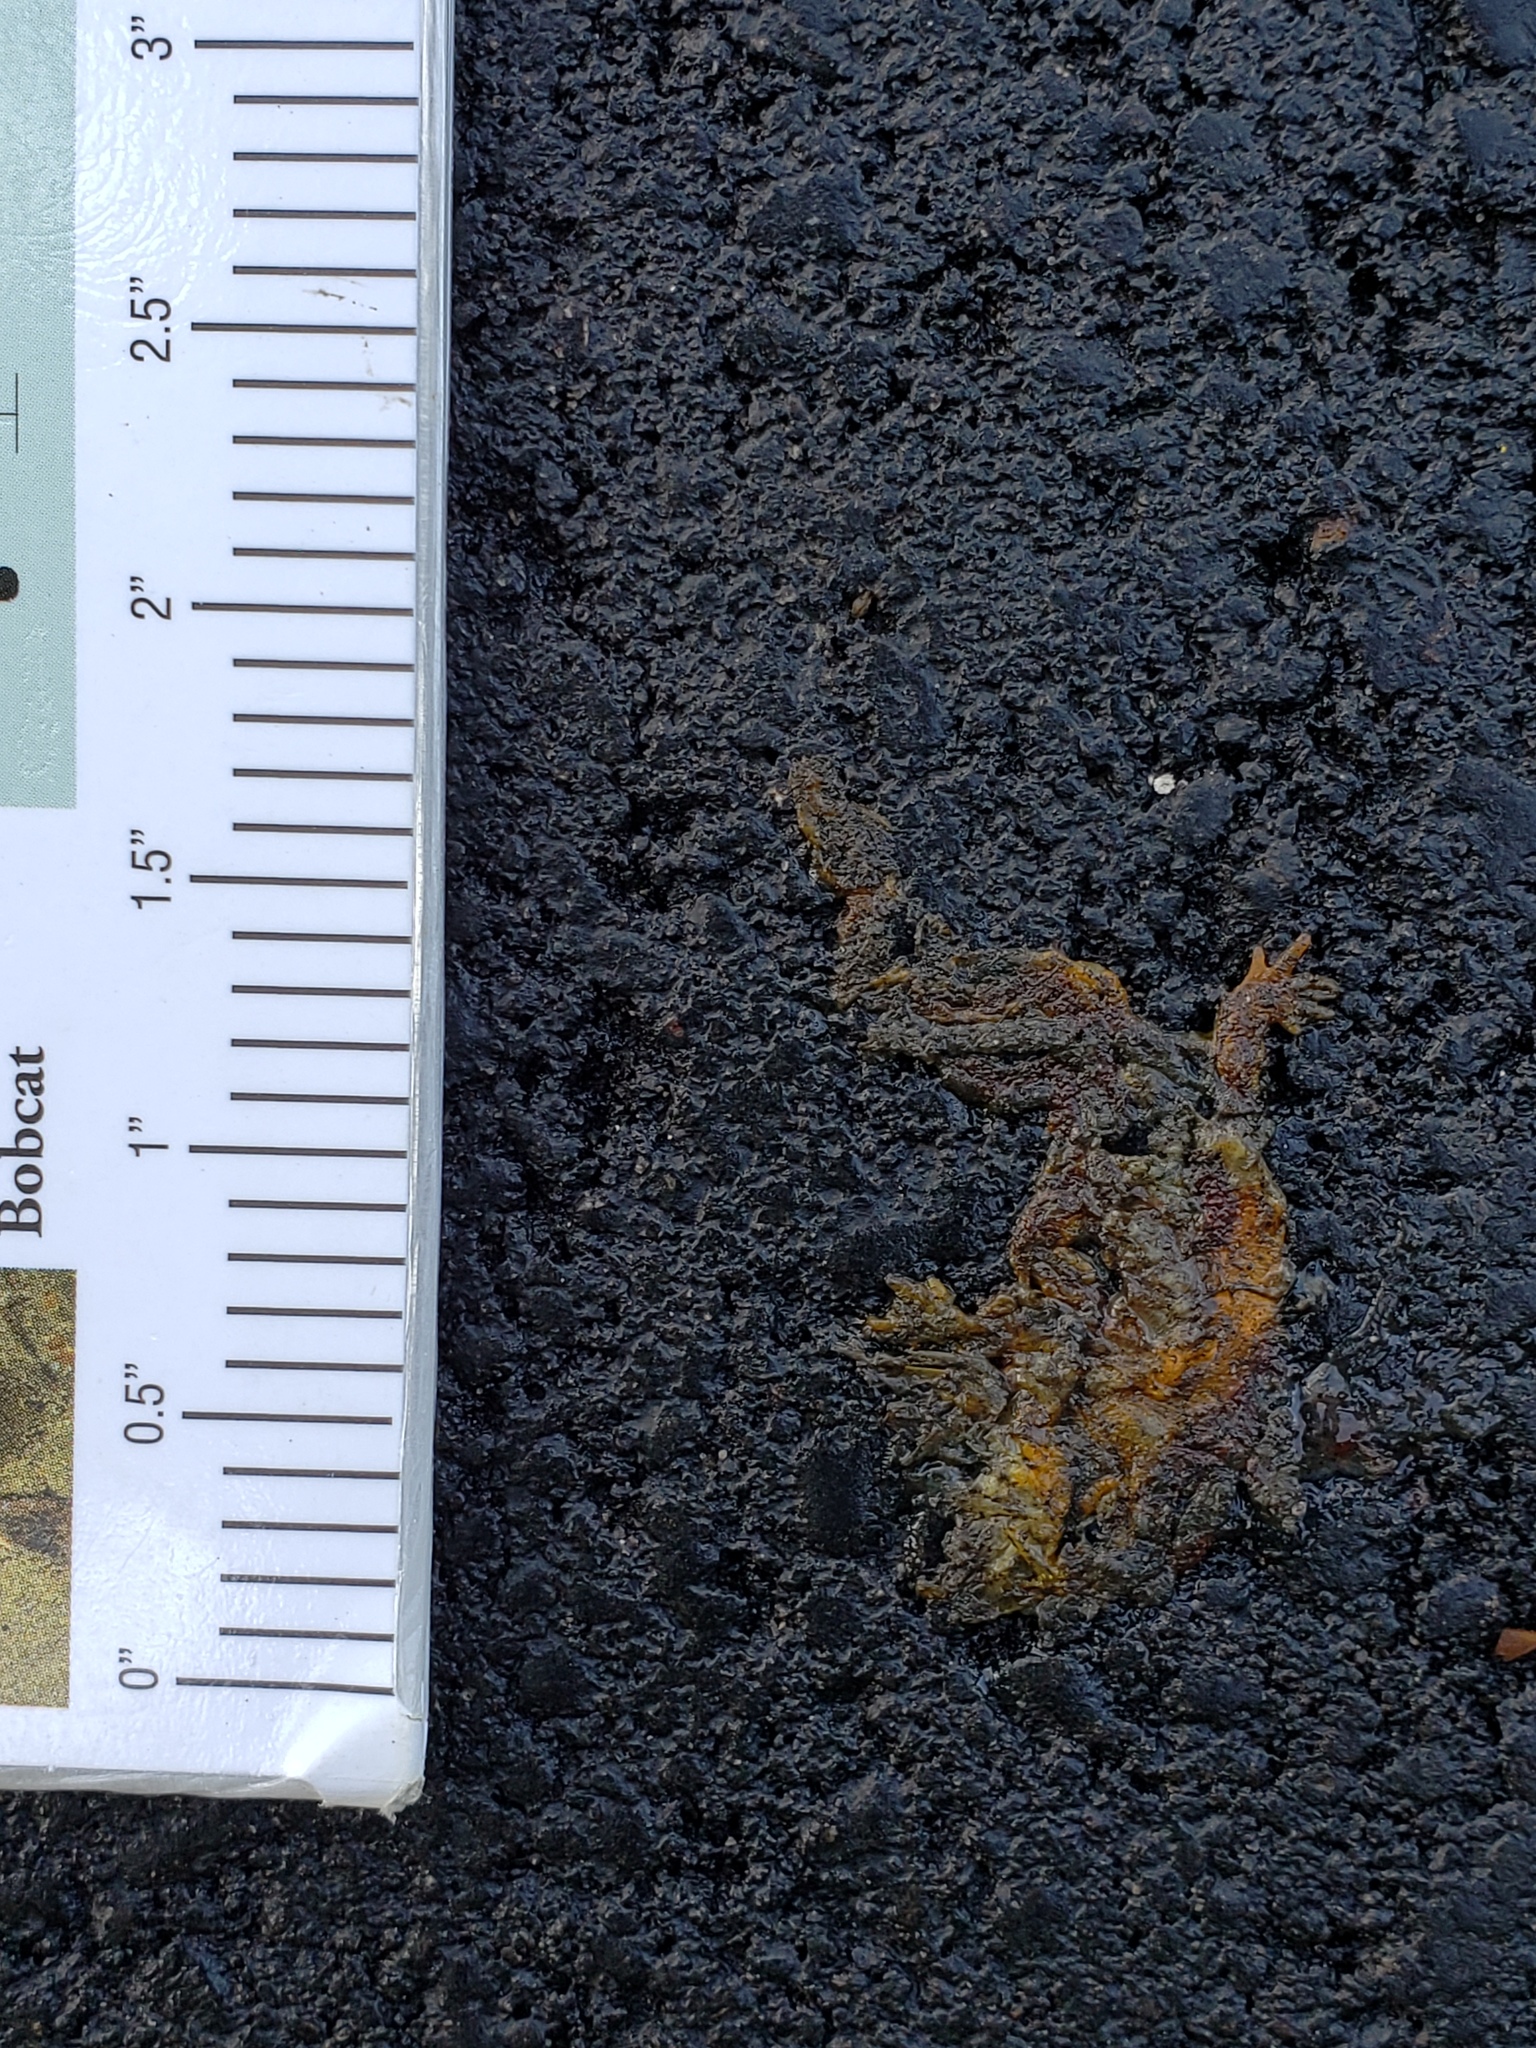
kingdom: Animalia
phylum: Chordata
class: Amphibia
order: Caudata
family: Salamandridae
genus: Taricha
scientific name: Taricha
